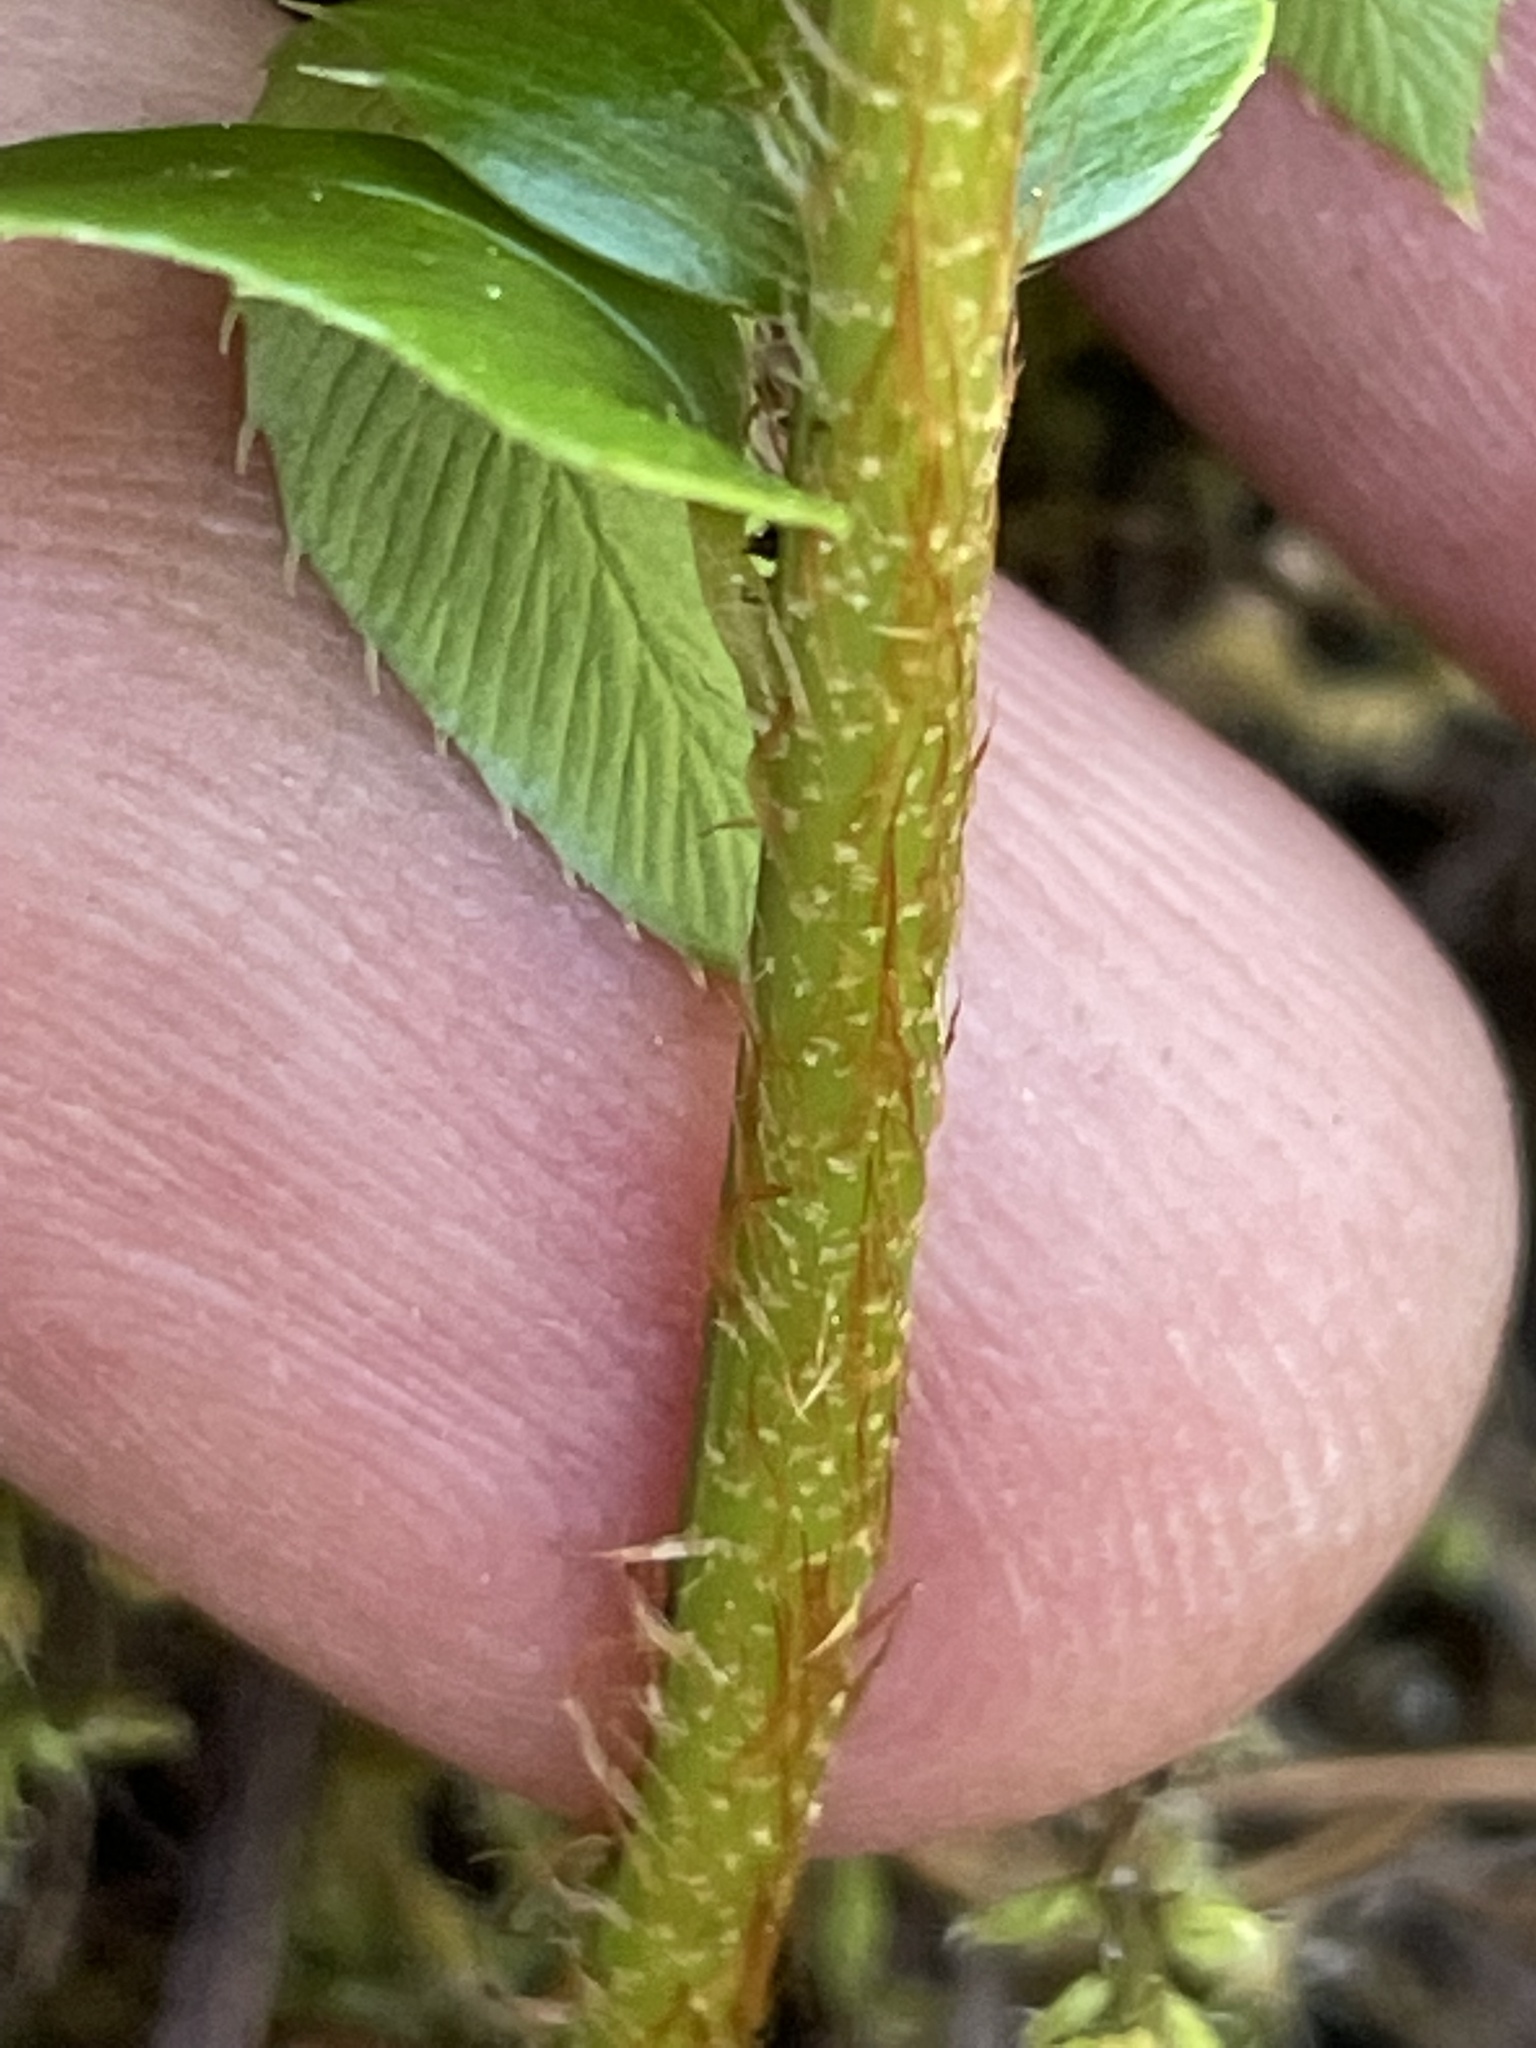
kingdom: Plantae
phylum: Tracheophyta
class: Polypodiopsida
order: Polypodiales
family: Dryopteridaceae
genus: Polystichum
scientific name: Polystichum imbricans
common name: Dwarf western sword fern
